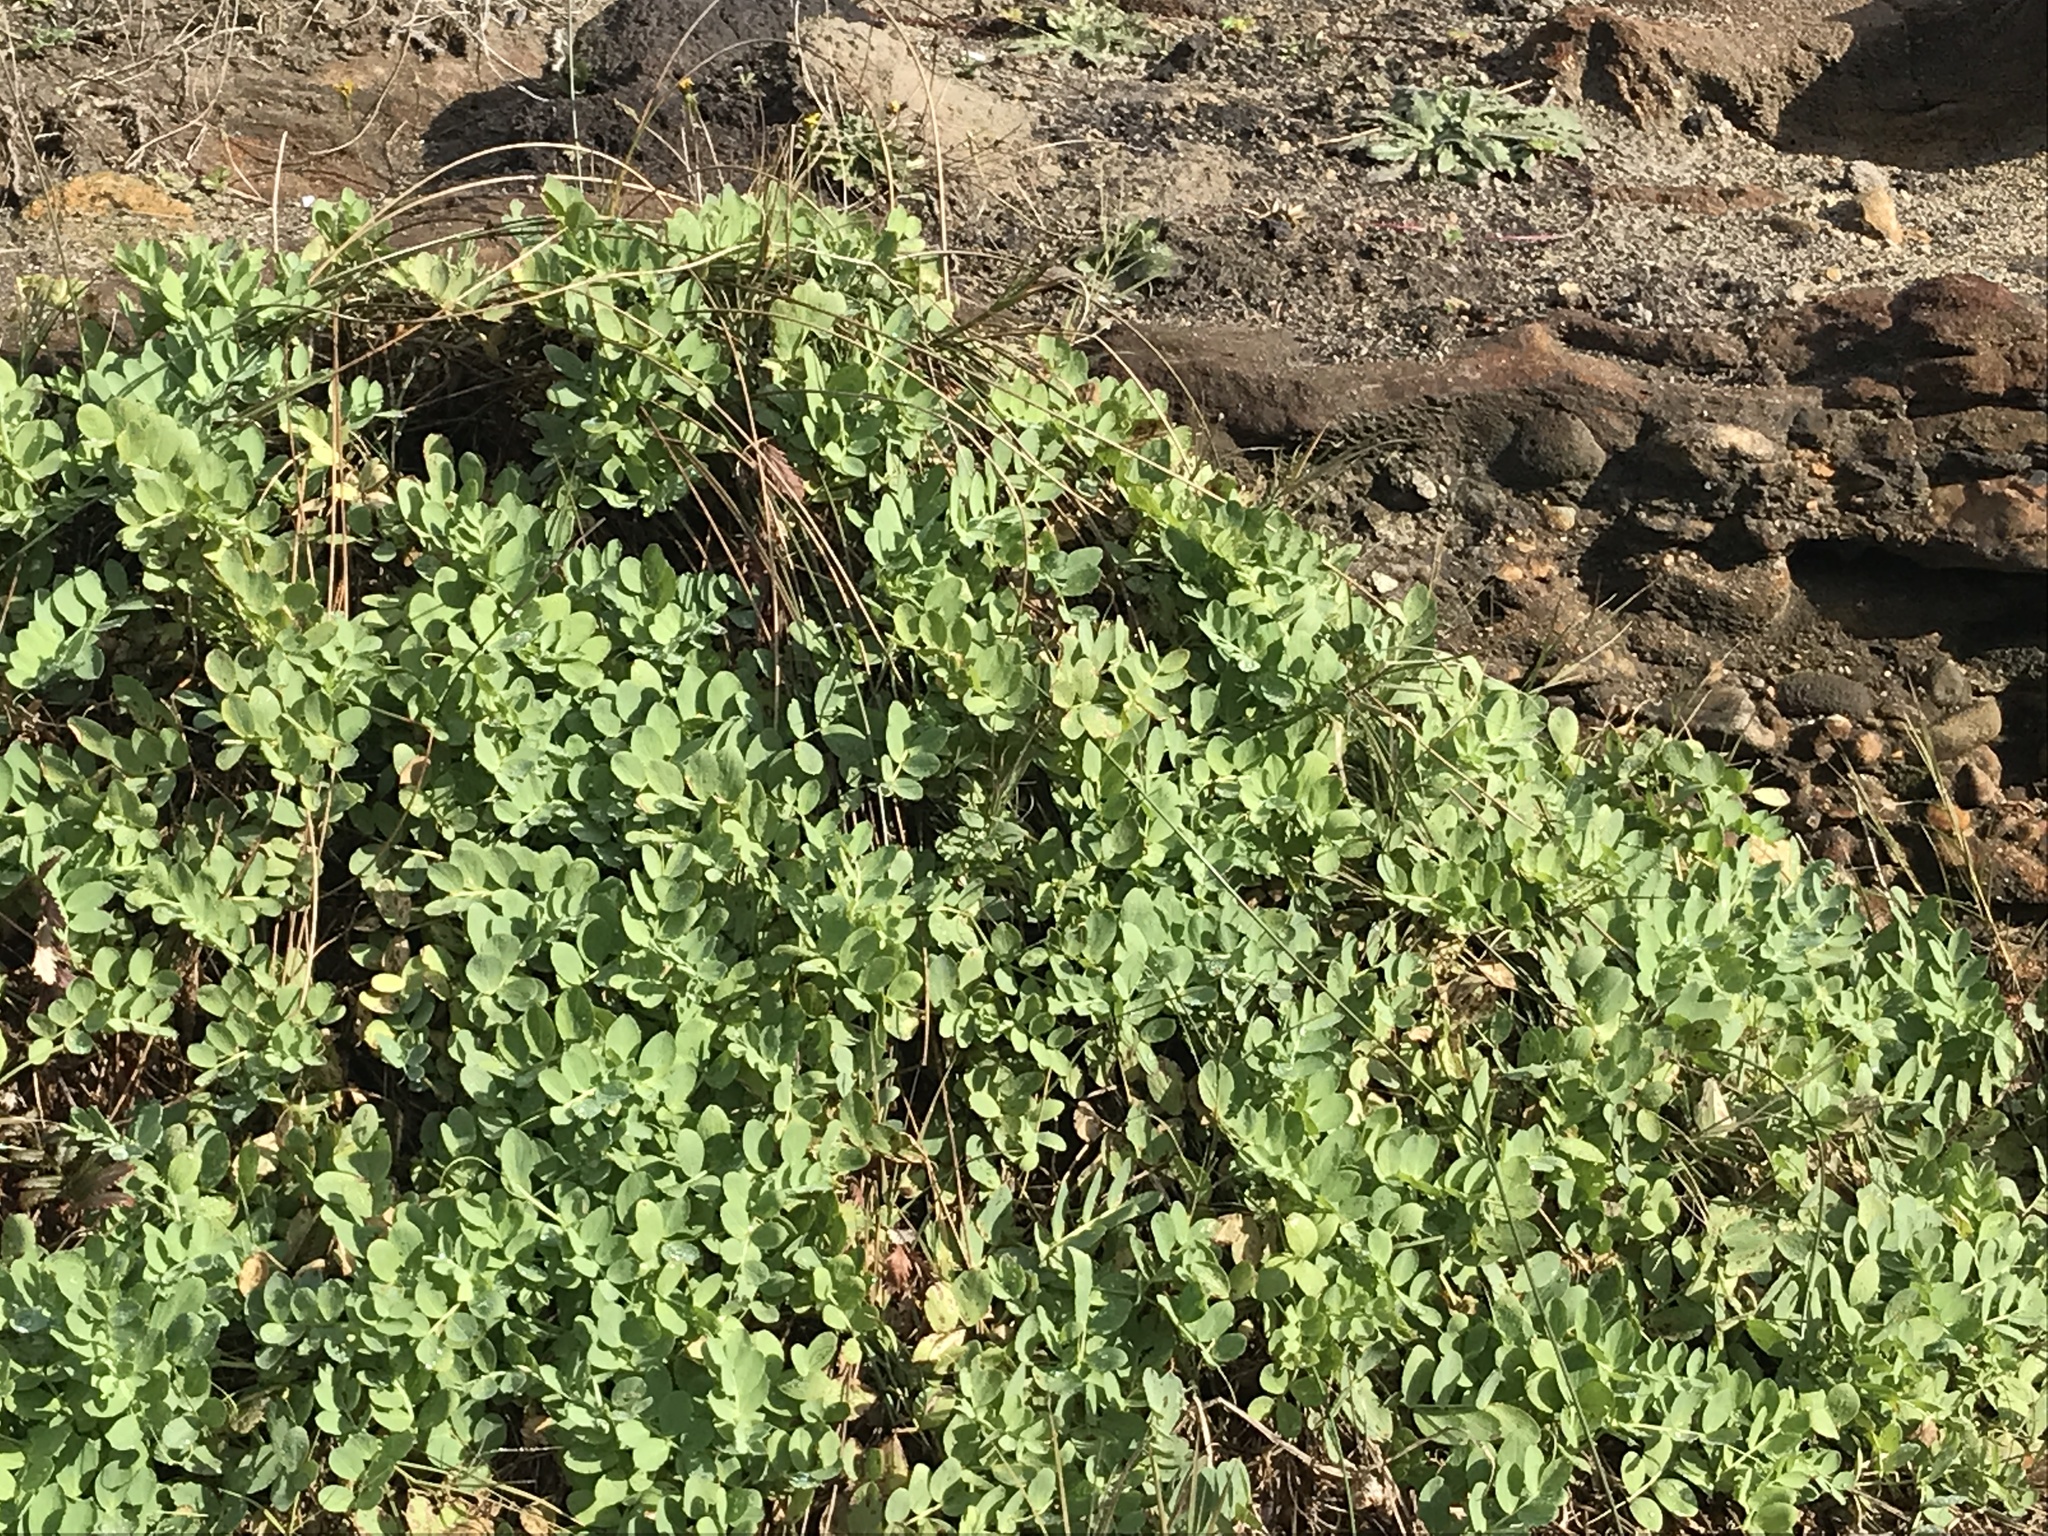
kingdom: Plantae
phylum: Tracheophyta
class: Magnoliopsida
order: Fabales
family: Fabaceae
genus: Lathyrus
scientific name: Lathyrus japonicus
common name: Sea pea
